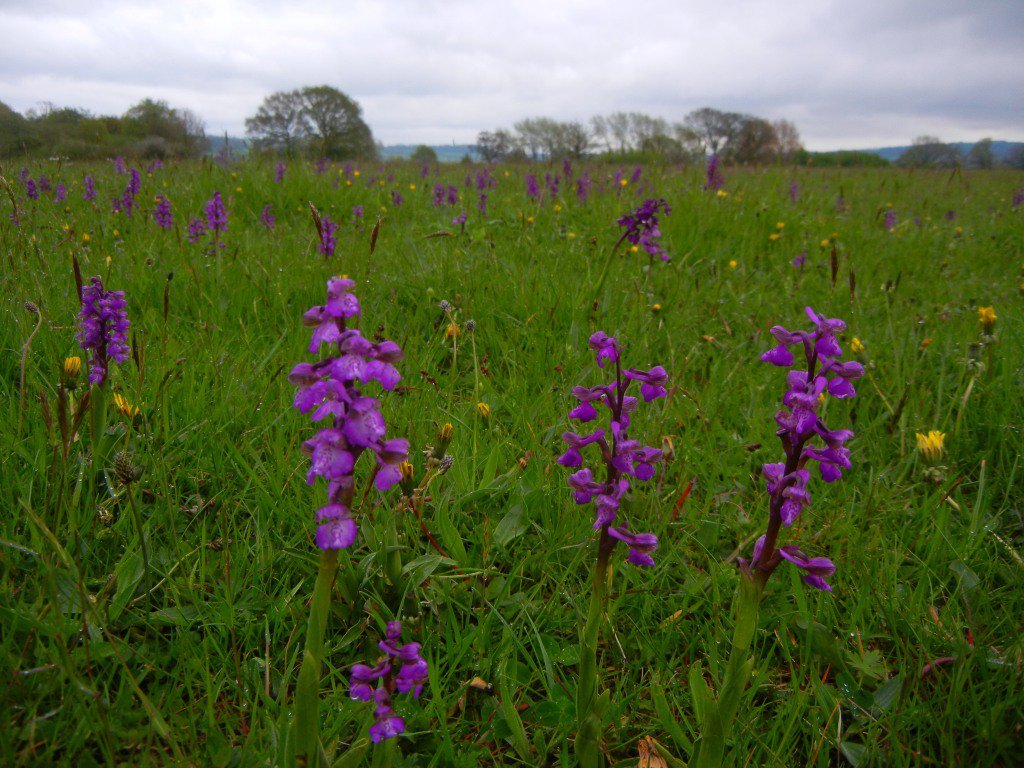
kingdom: Plantae
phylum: Tracheophyta
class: Liliopsida
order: Asparagales
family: Orchidaceae
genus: Anacamptis
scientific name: Anacamptis morio
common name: Green-winged orchid
